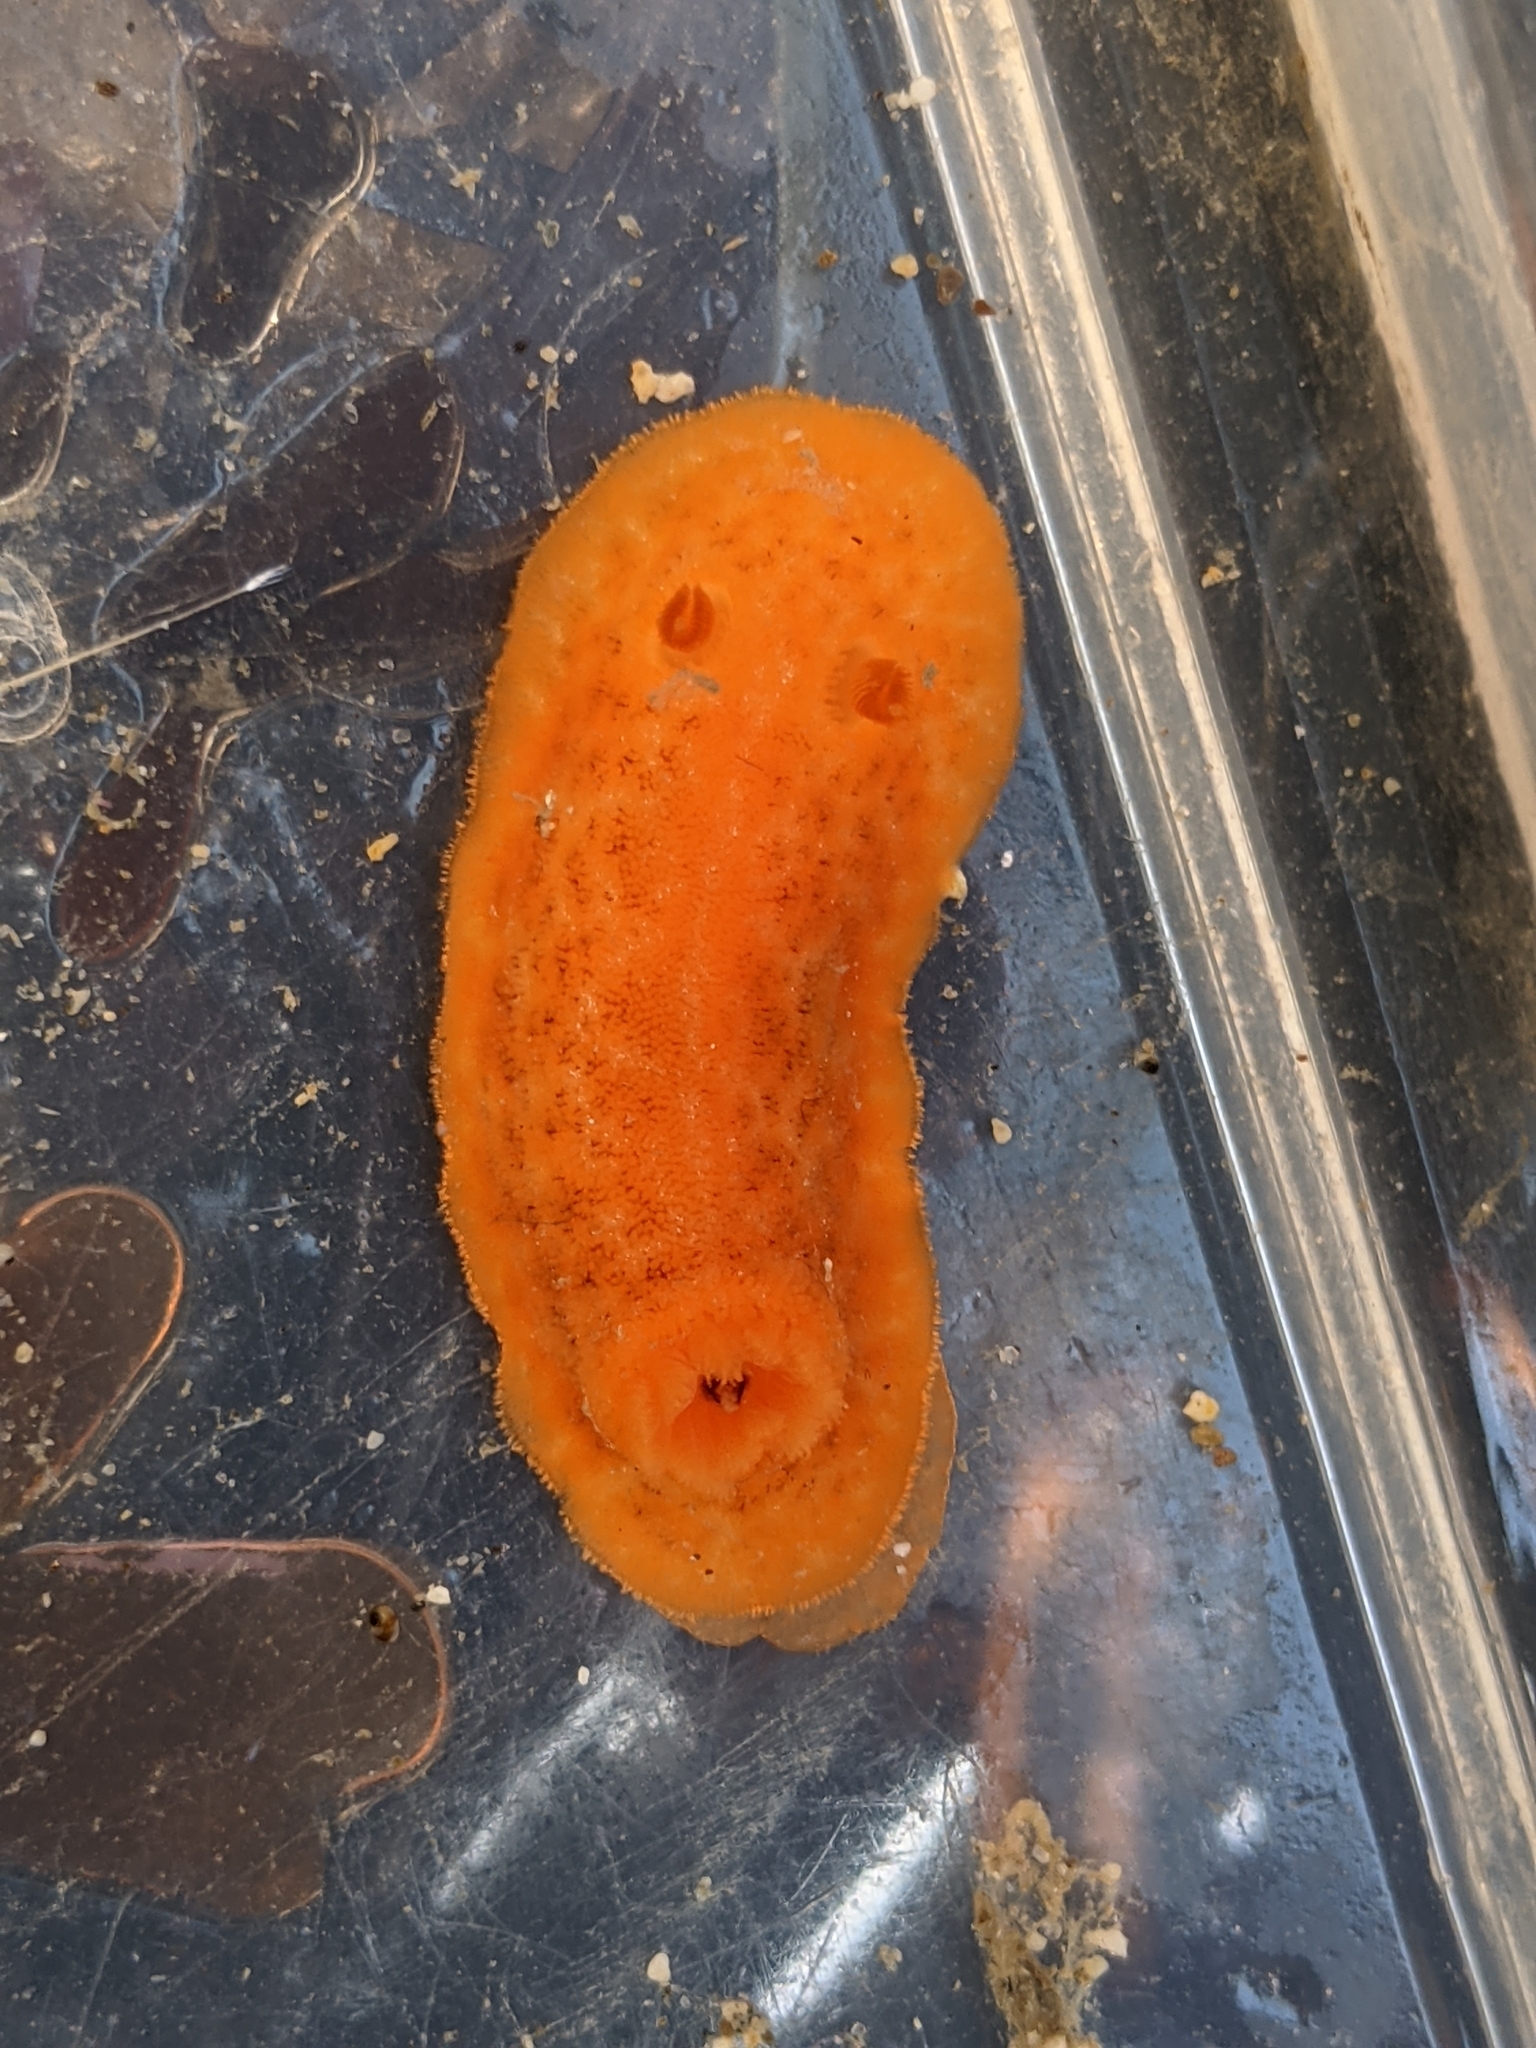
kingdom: Animalia
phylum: Mollusca
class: Gastropoda
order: Nudibranchia
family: Discodorididae
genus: Rostanga
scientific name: Rostanga pulchra
